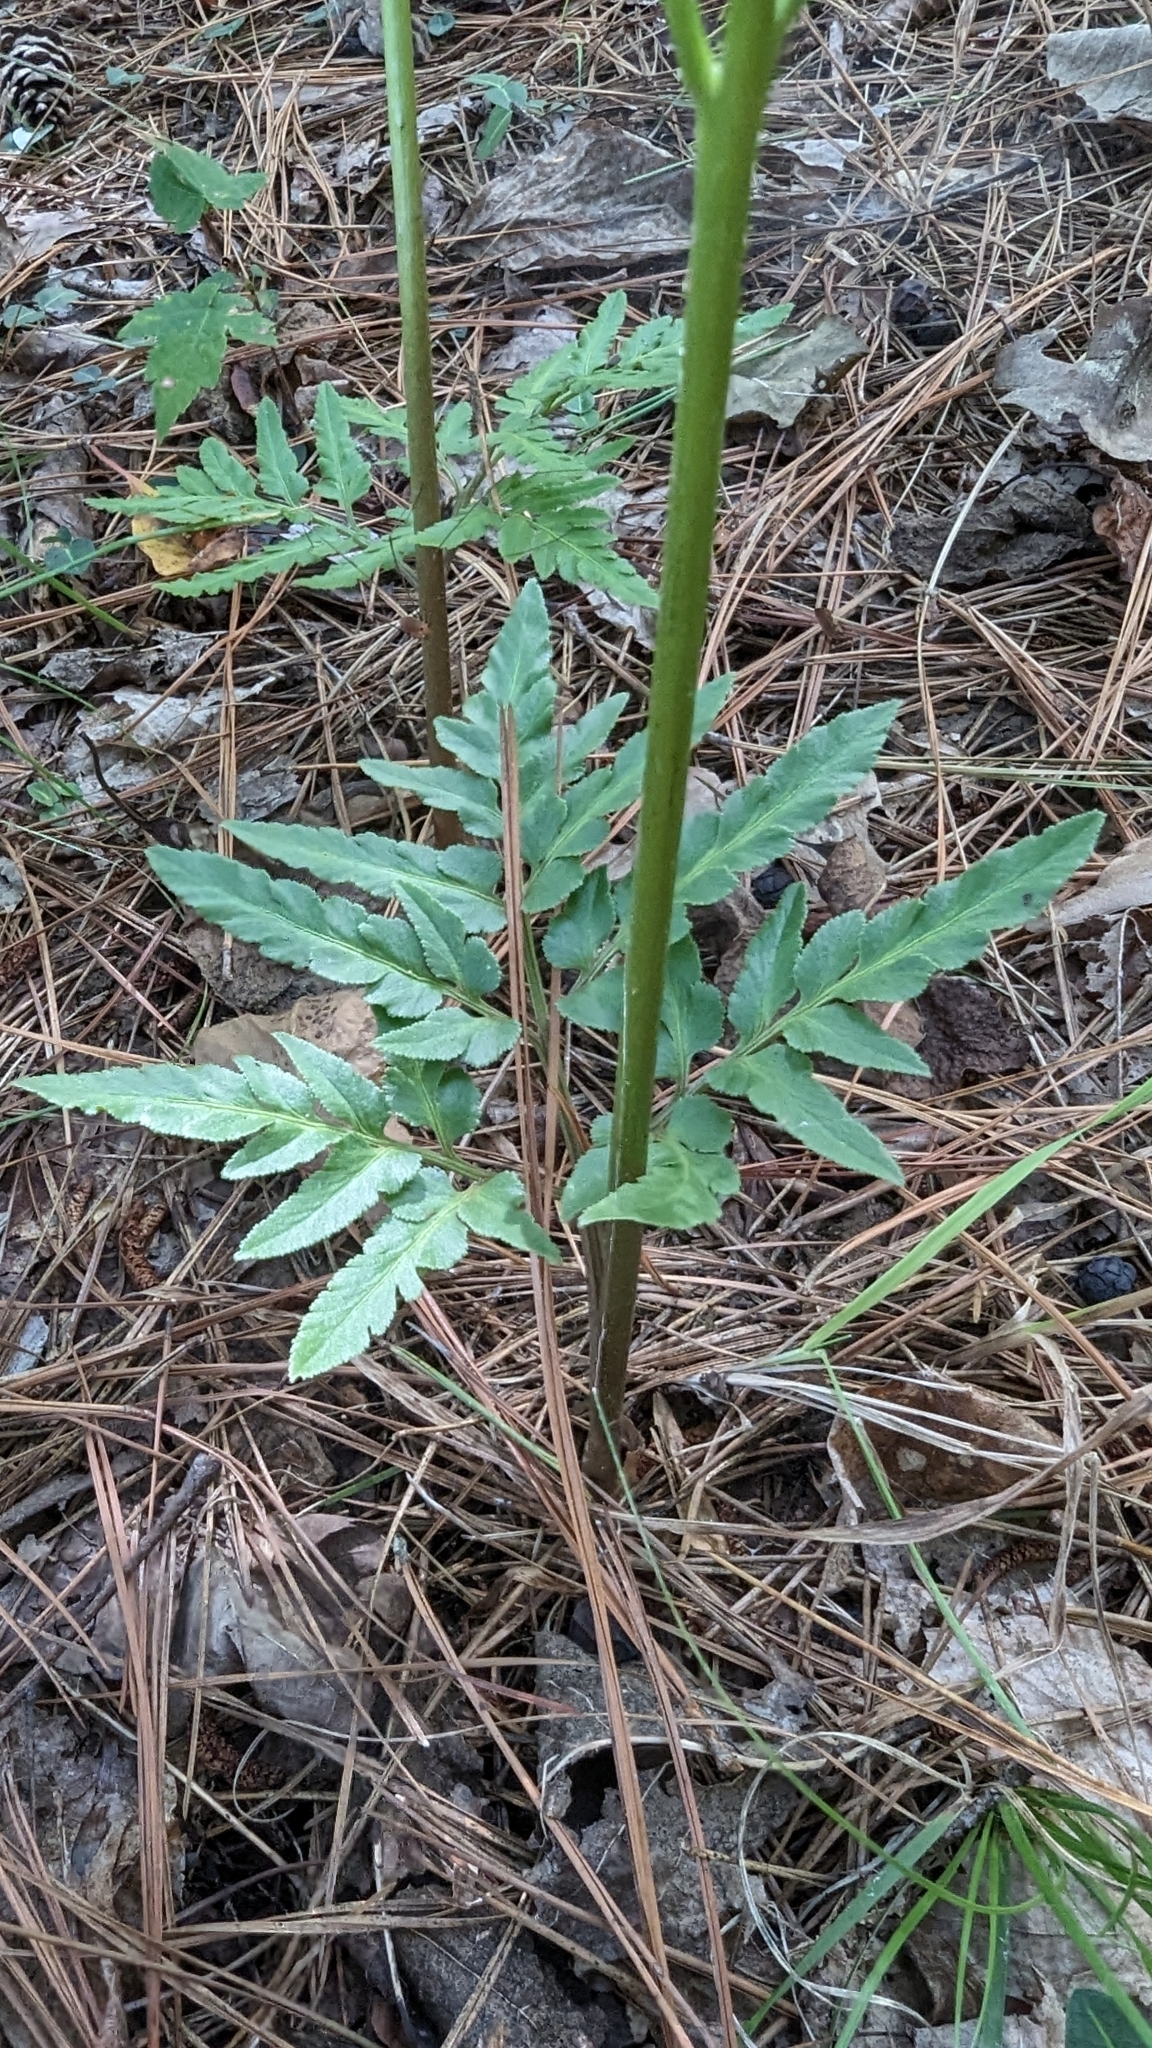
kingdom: Plantae
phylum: Tracheophyta
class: Polypodiopsida
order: Ophioglossales
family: Ophioglossaceae
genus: Sceptridium
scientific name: Sceptridium dissectum
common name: Cut-leaved grapefern
